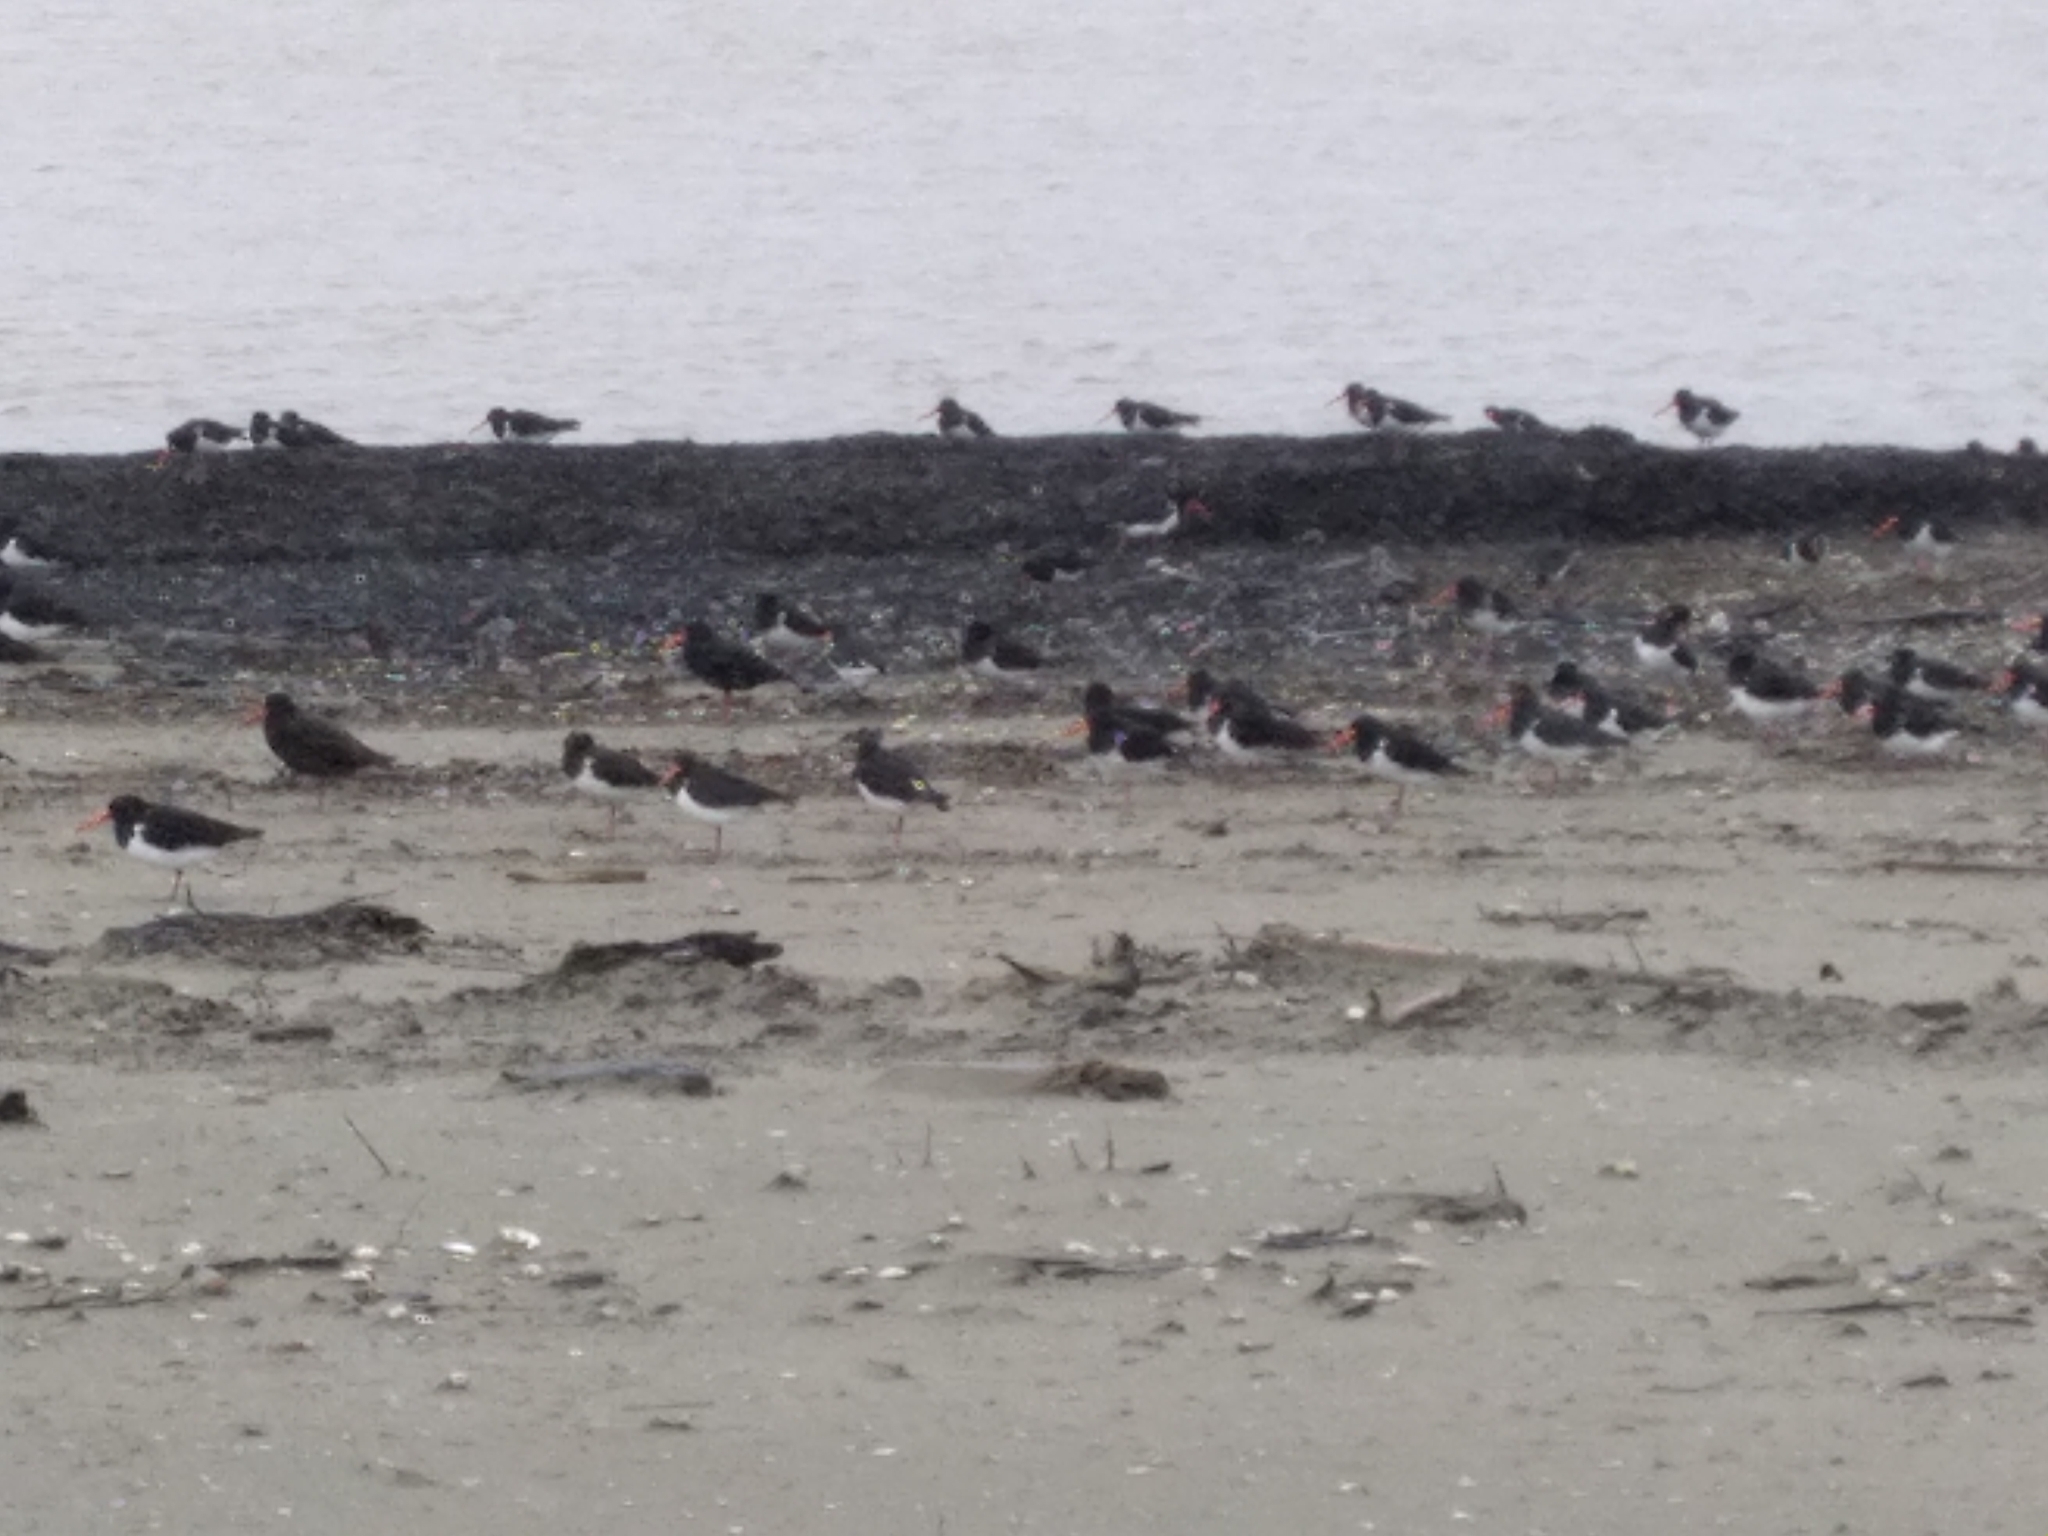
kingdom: Animalia
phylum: Chordata
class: Aves
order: Charadriiformes
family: Haematopodidae
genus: Haematopus
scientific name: Haematopus finschi
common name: South island oystercatcher
